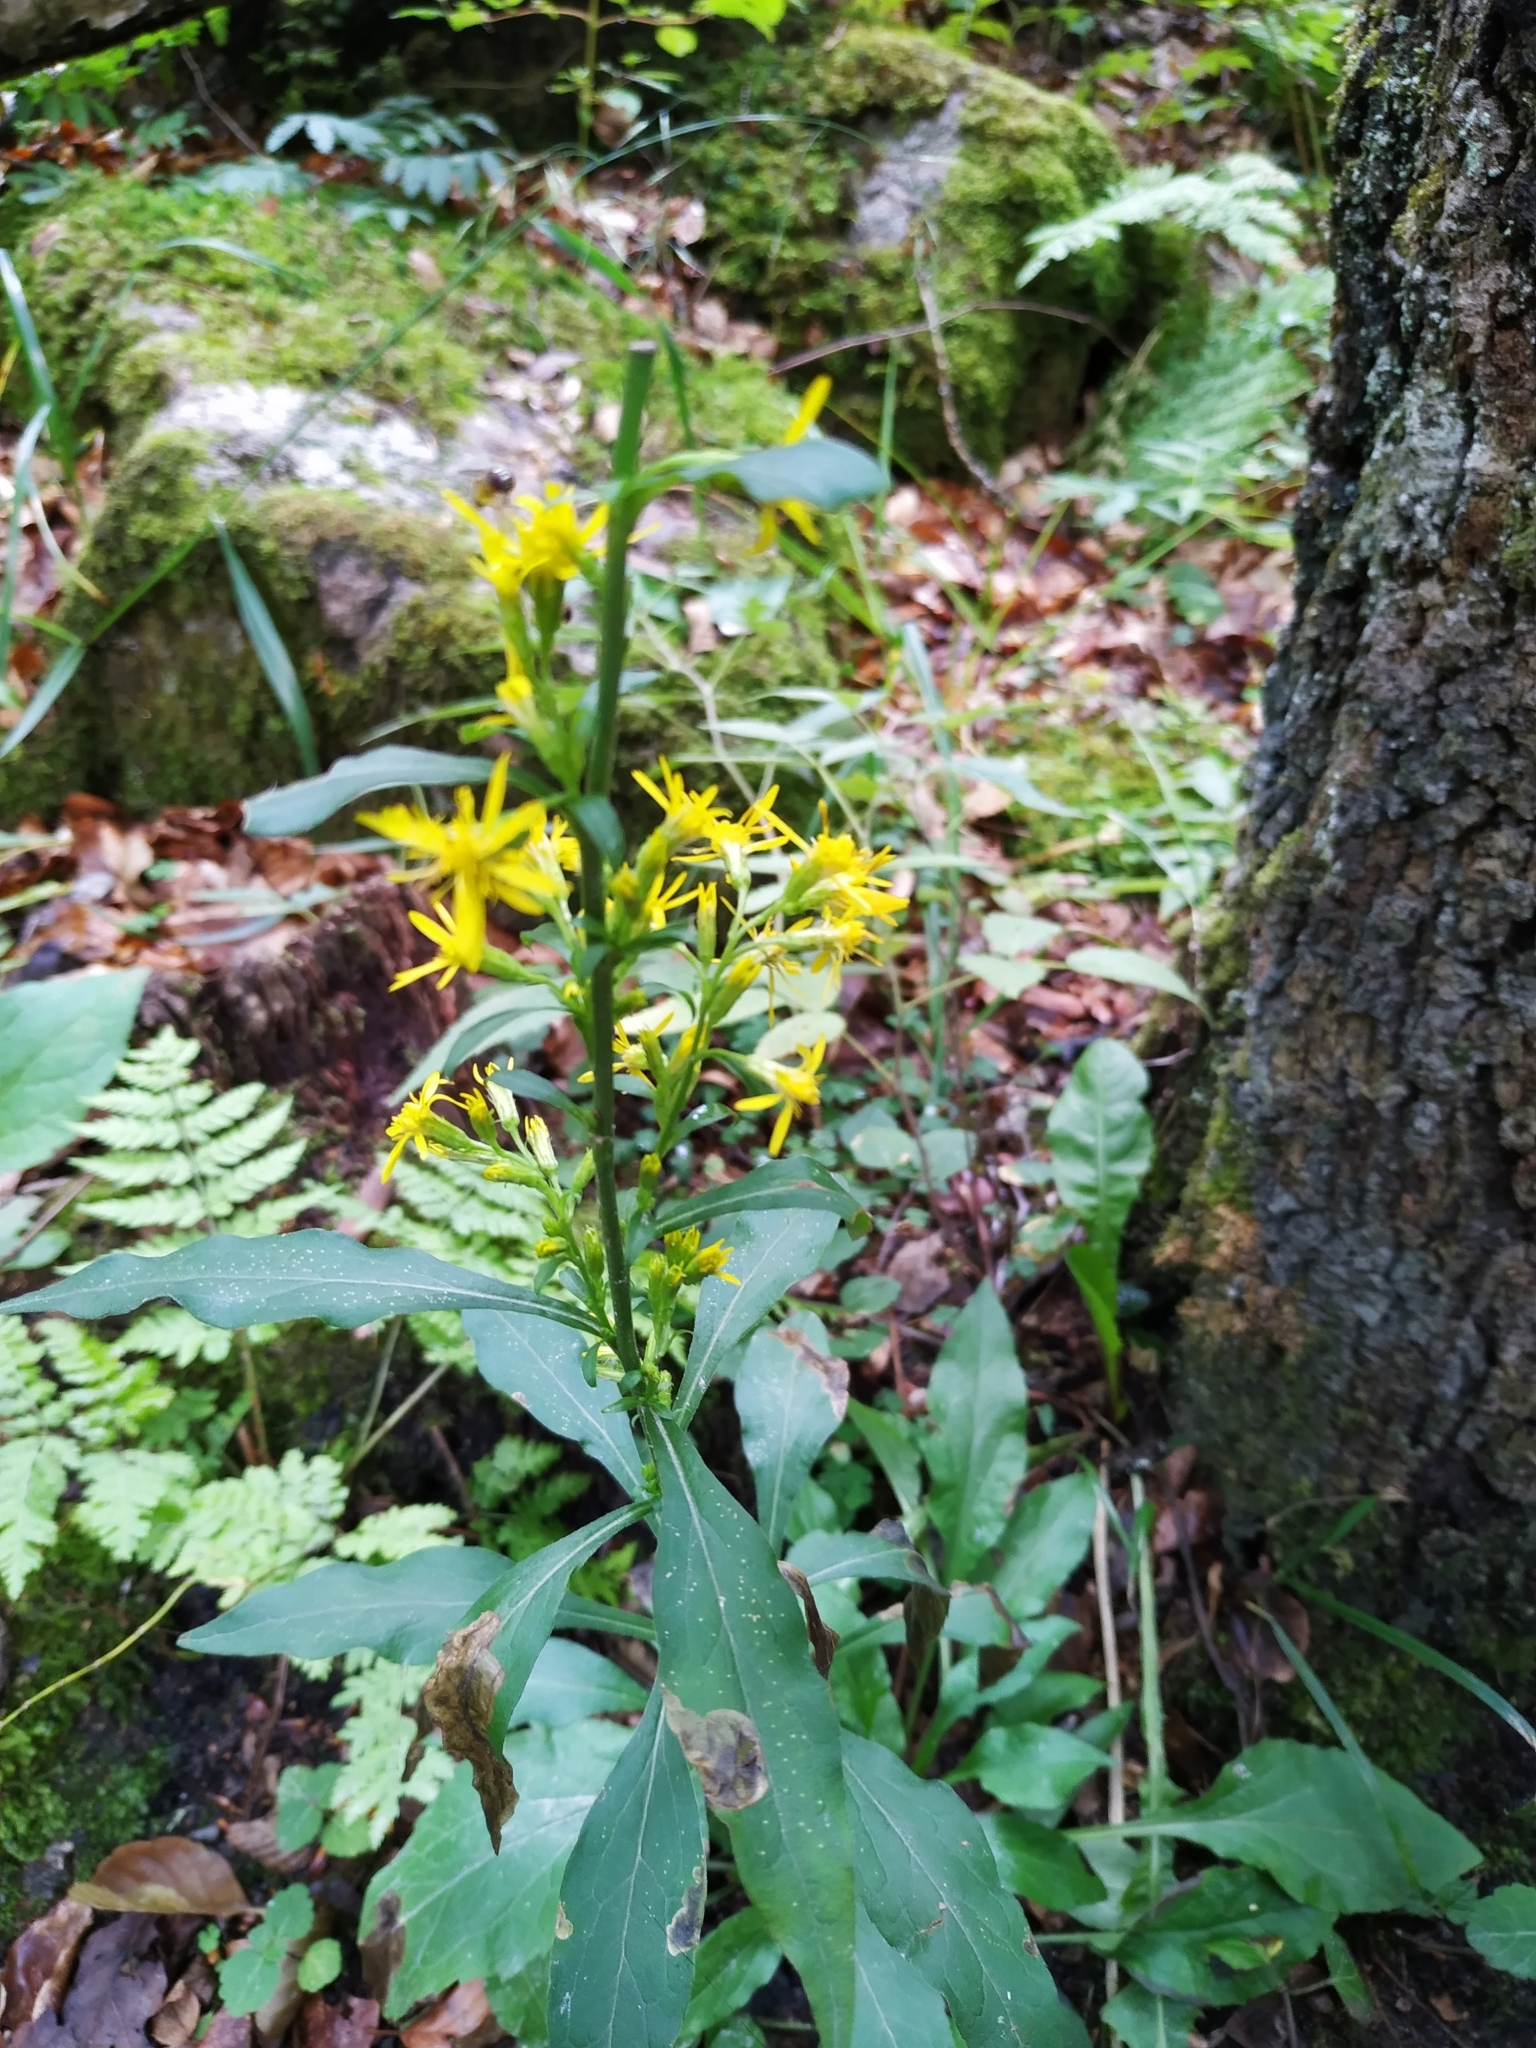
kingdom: Plantae
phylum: Tracheophyta
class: Magnoliopsida
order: Asterales
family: Asteraceae
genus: Solidago
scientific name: Solidago virgaurea
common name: Goldenrod
